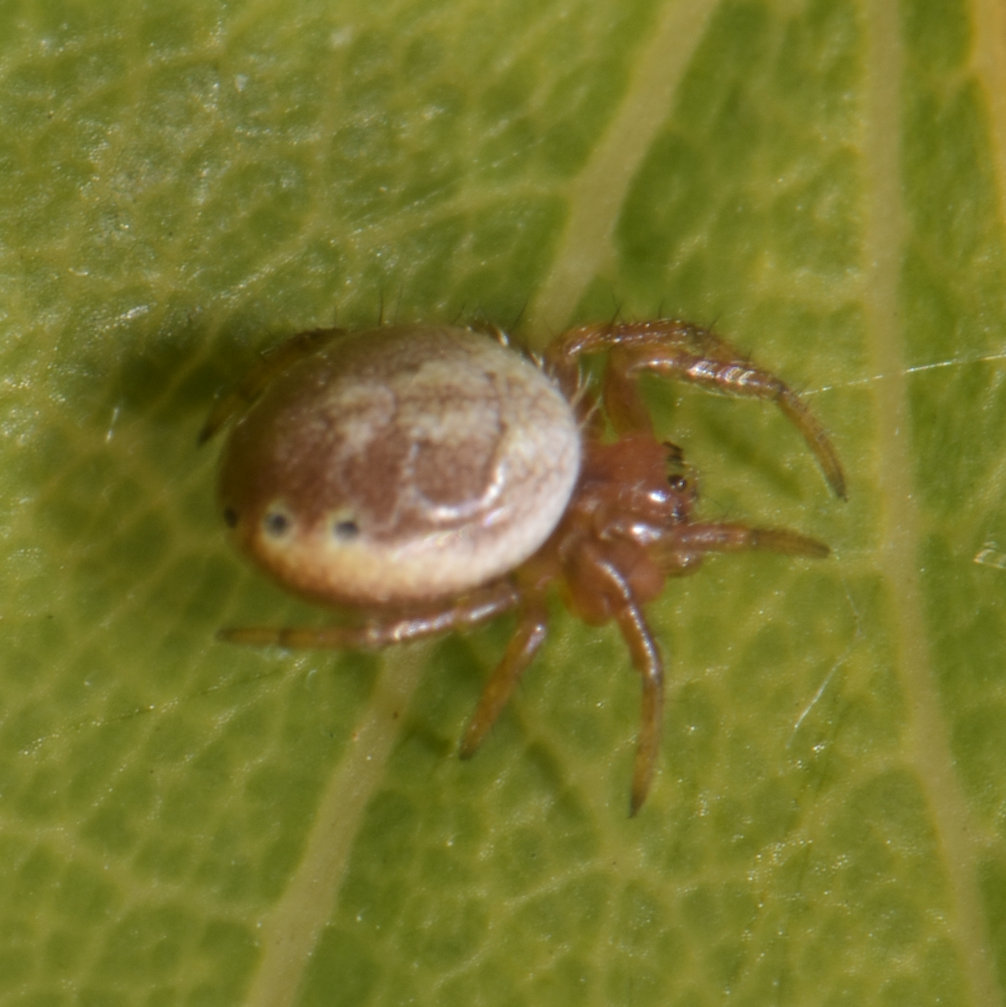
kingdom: Animalia
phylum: Arthropoda
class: Arachnida
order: Araneae
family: Araneidae
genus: Araniella
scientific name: Araniella displicata
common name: Sixspotted orb weaver
